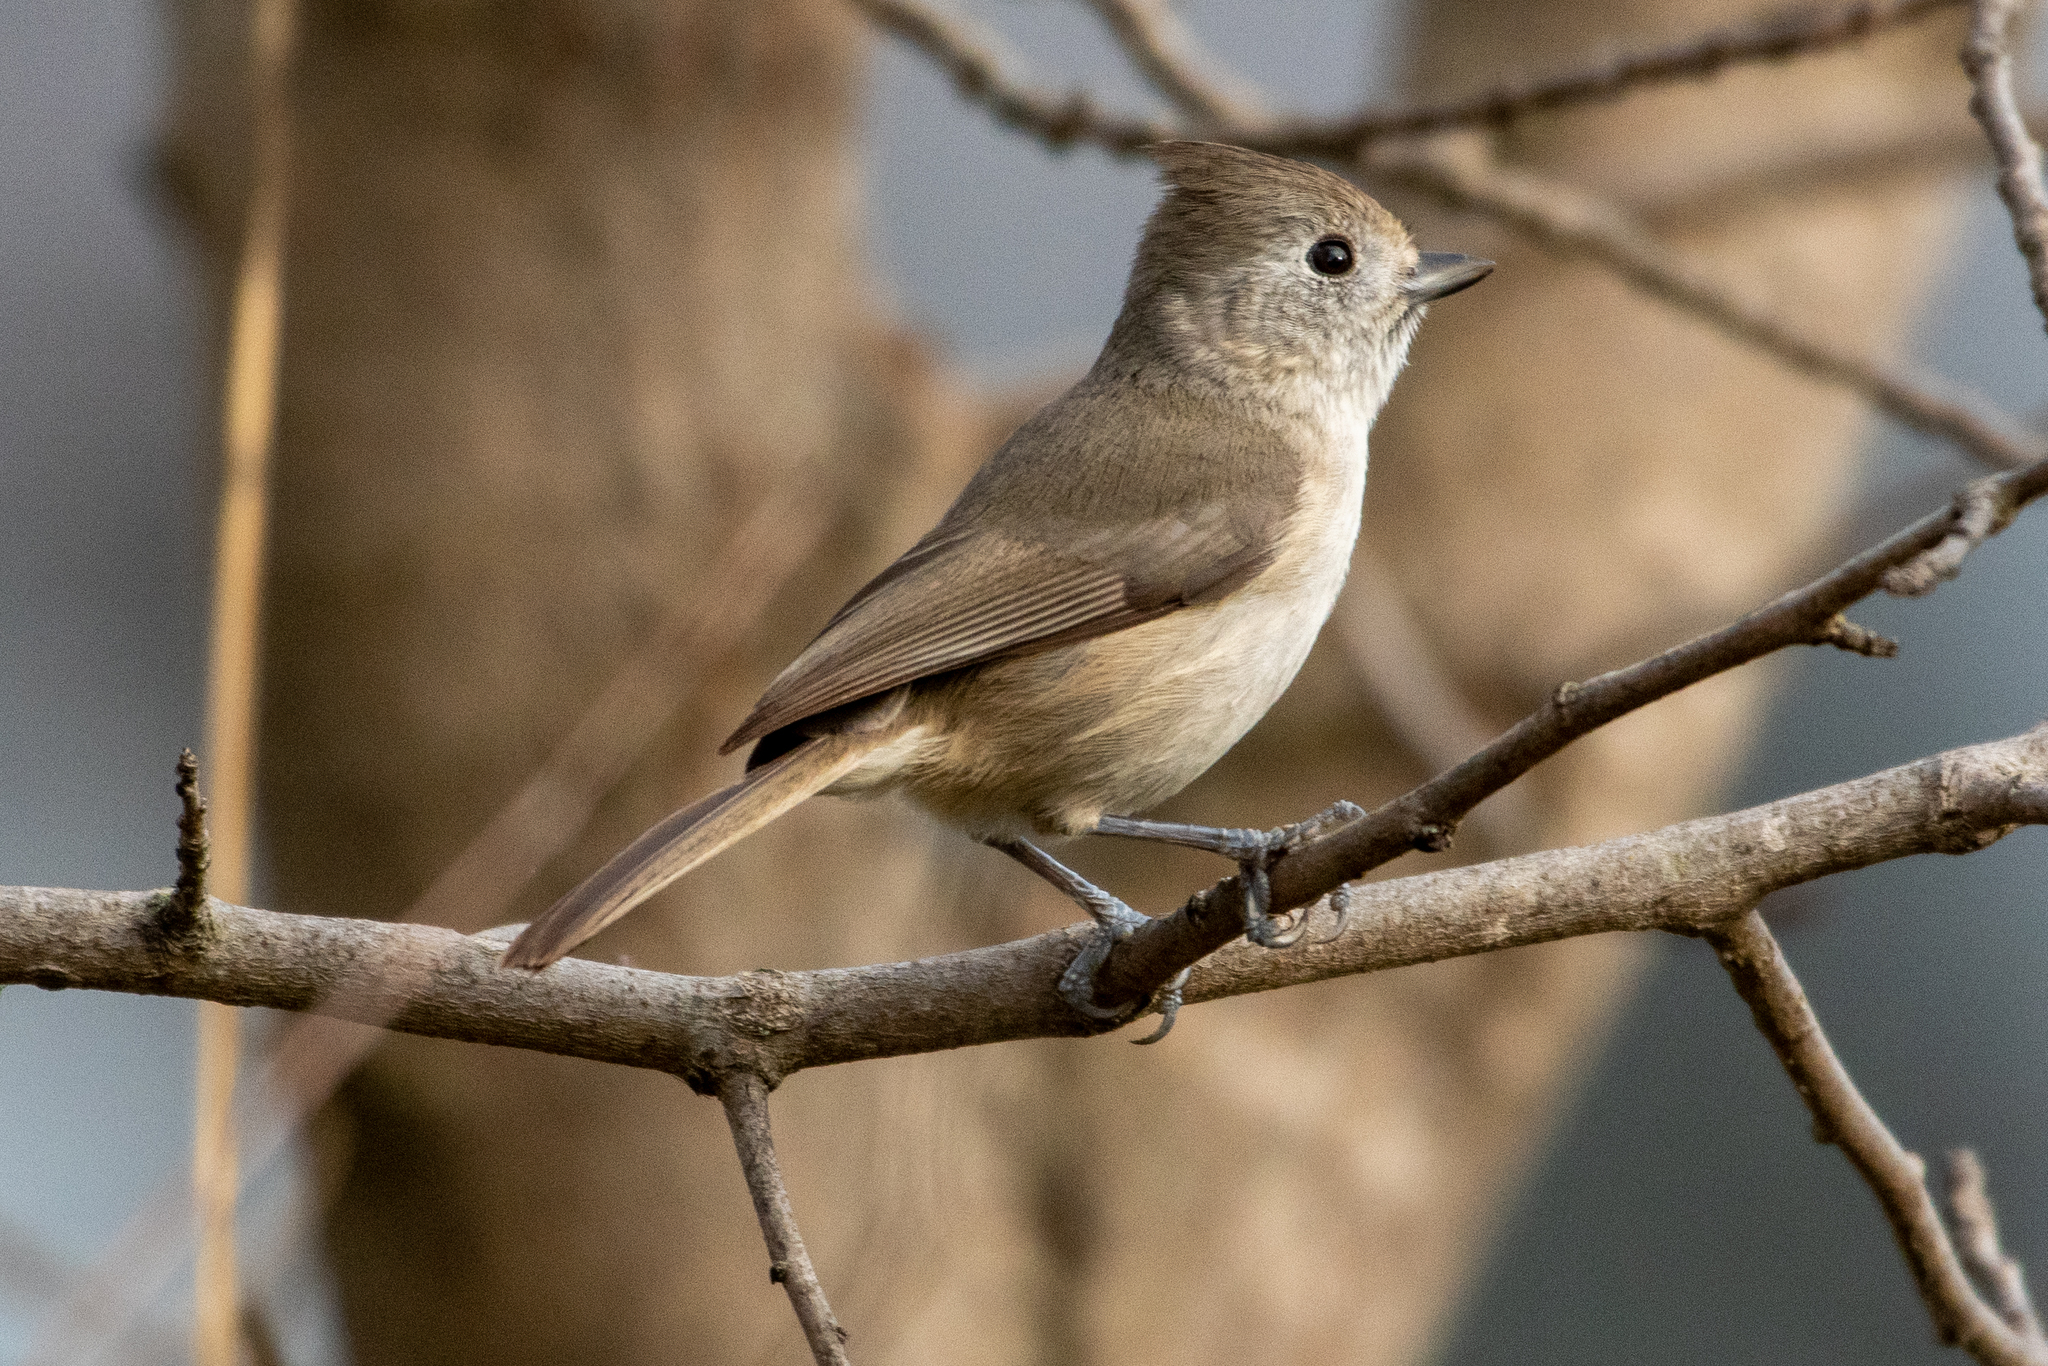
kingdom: Animalia
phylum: Chordata
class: Aves
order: Passeriformes
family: Paridae
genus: Baeolophus
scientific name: Baeolophus inornatus
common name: Oak titmouse
